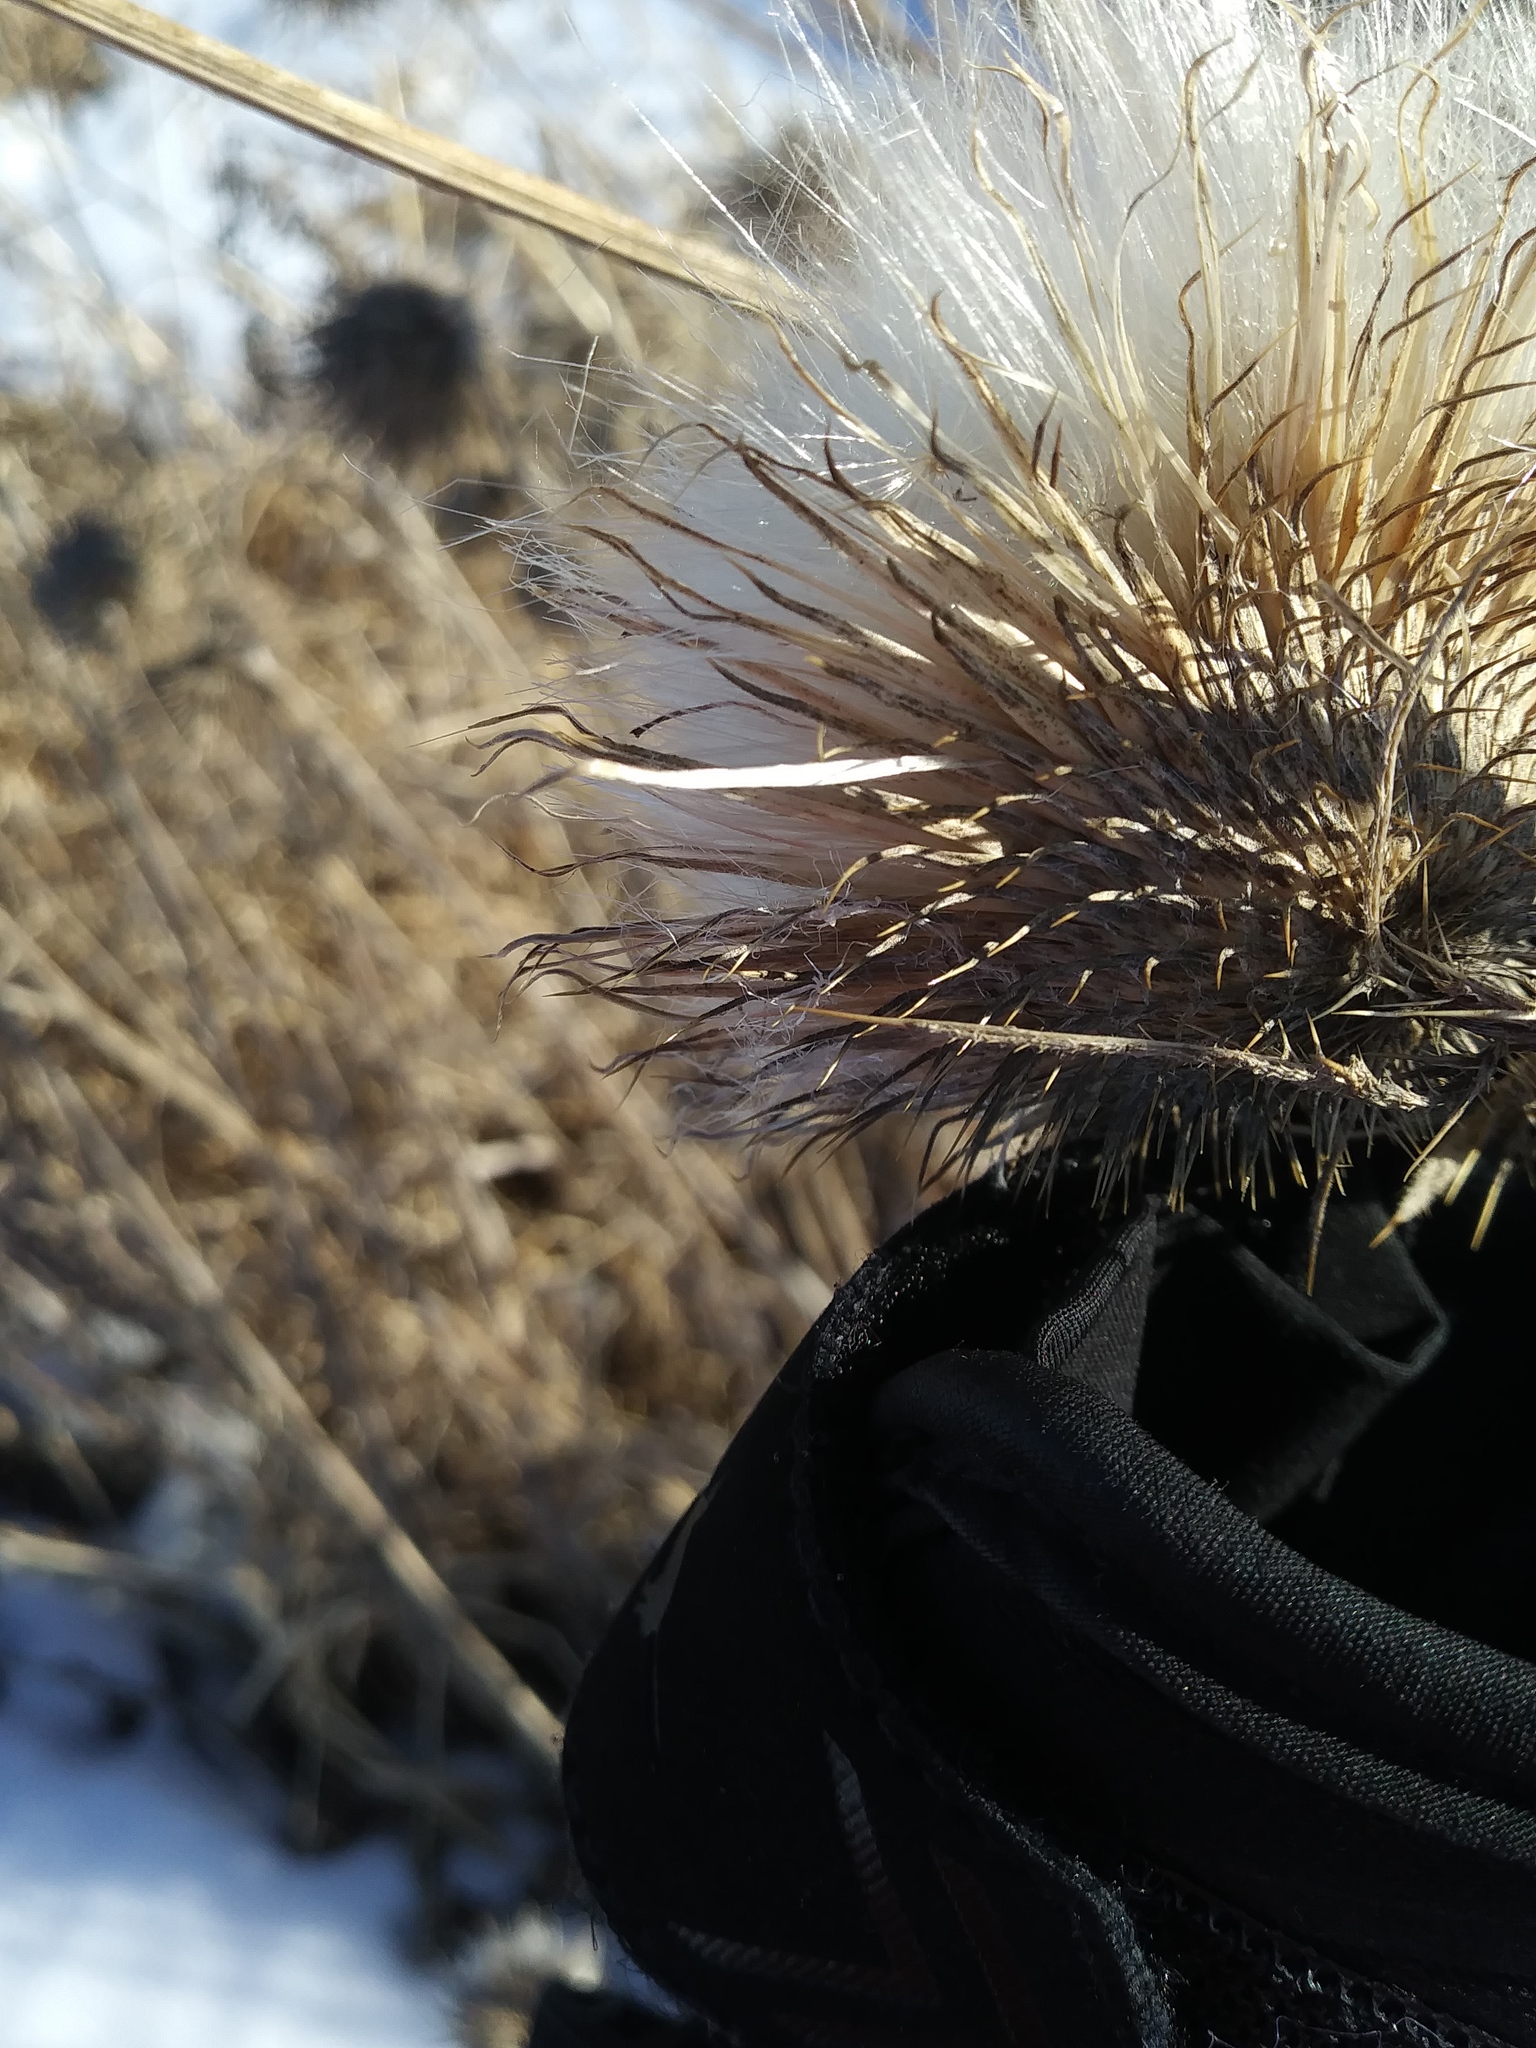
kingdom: Plantae
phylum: Tracheophyta
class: Magnoliopsida
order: Asterales
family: Asteraceae
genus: Cirsium
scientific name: Cirsium vulgare
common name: Bull thistle
